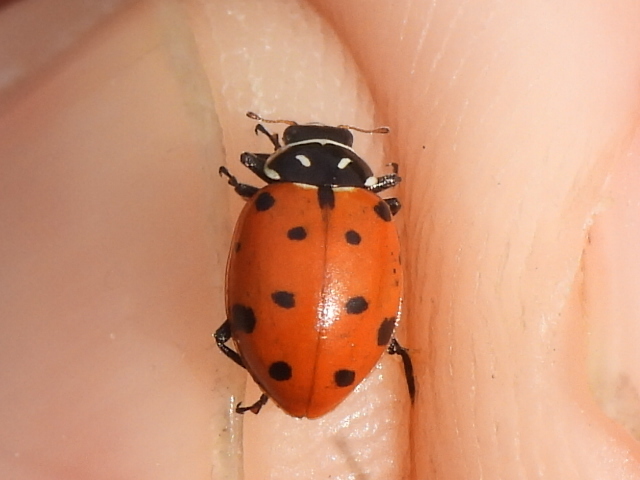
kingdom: Animalia
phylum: Arthropoda
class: Insecta
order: Coleoptera
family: Coccinellidae
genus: Hippodamia
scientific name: Hippodamia convergens
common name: Convergent lady beetle
